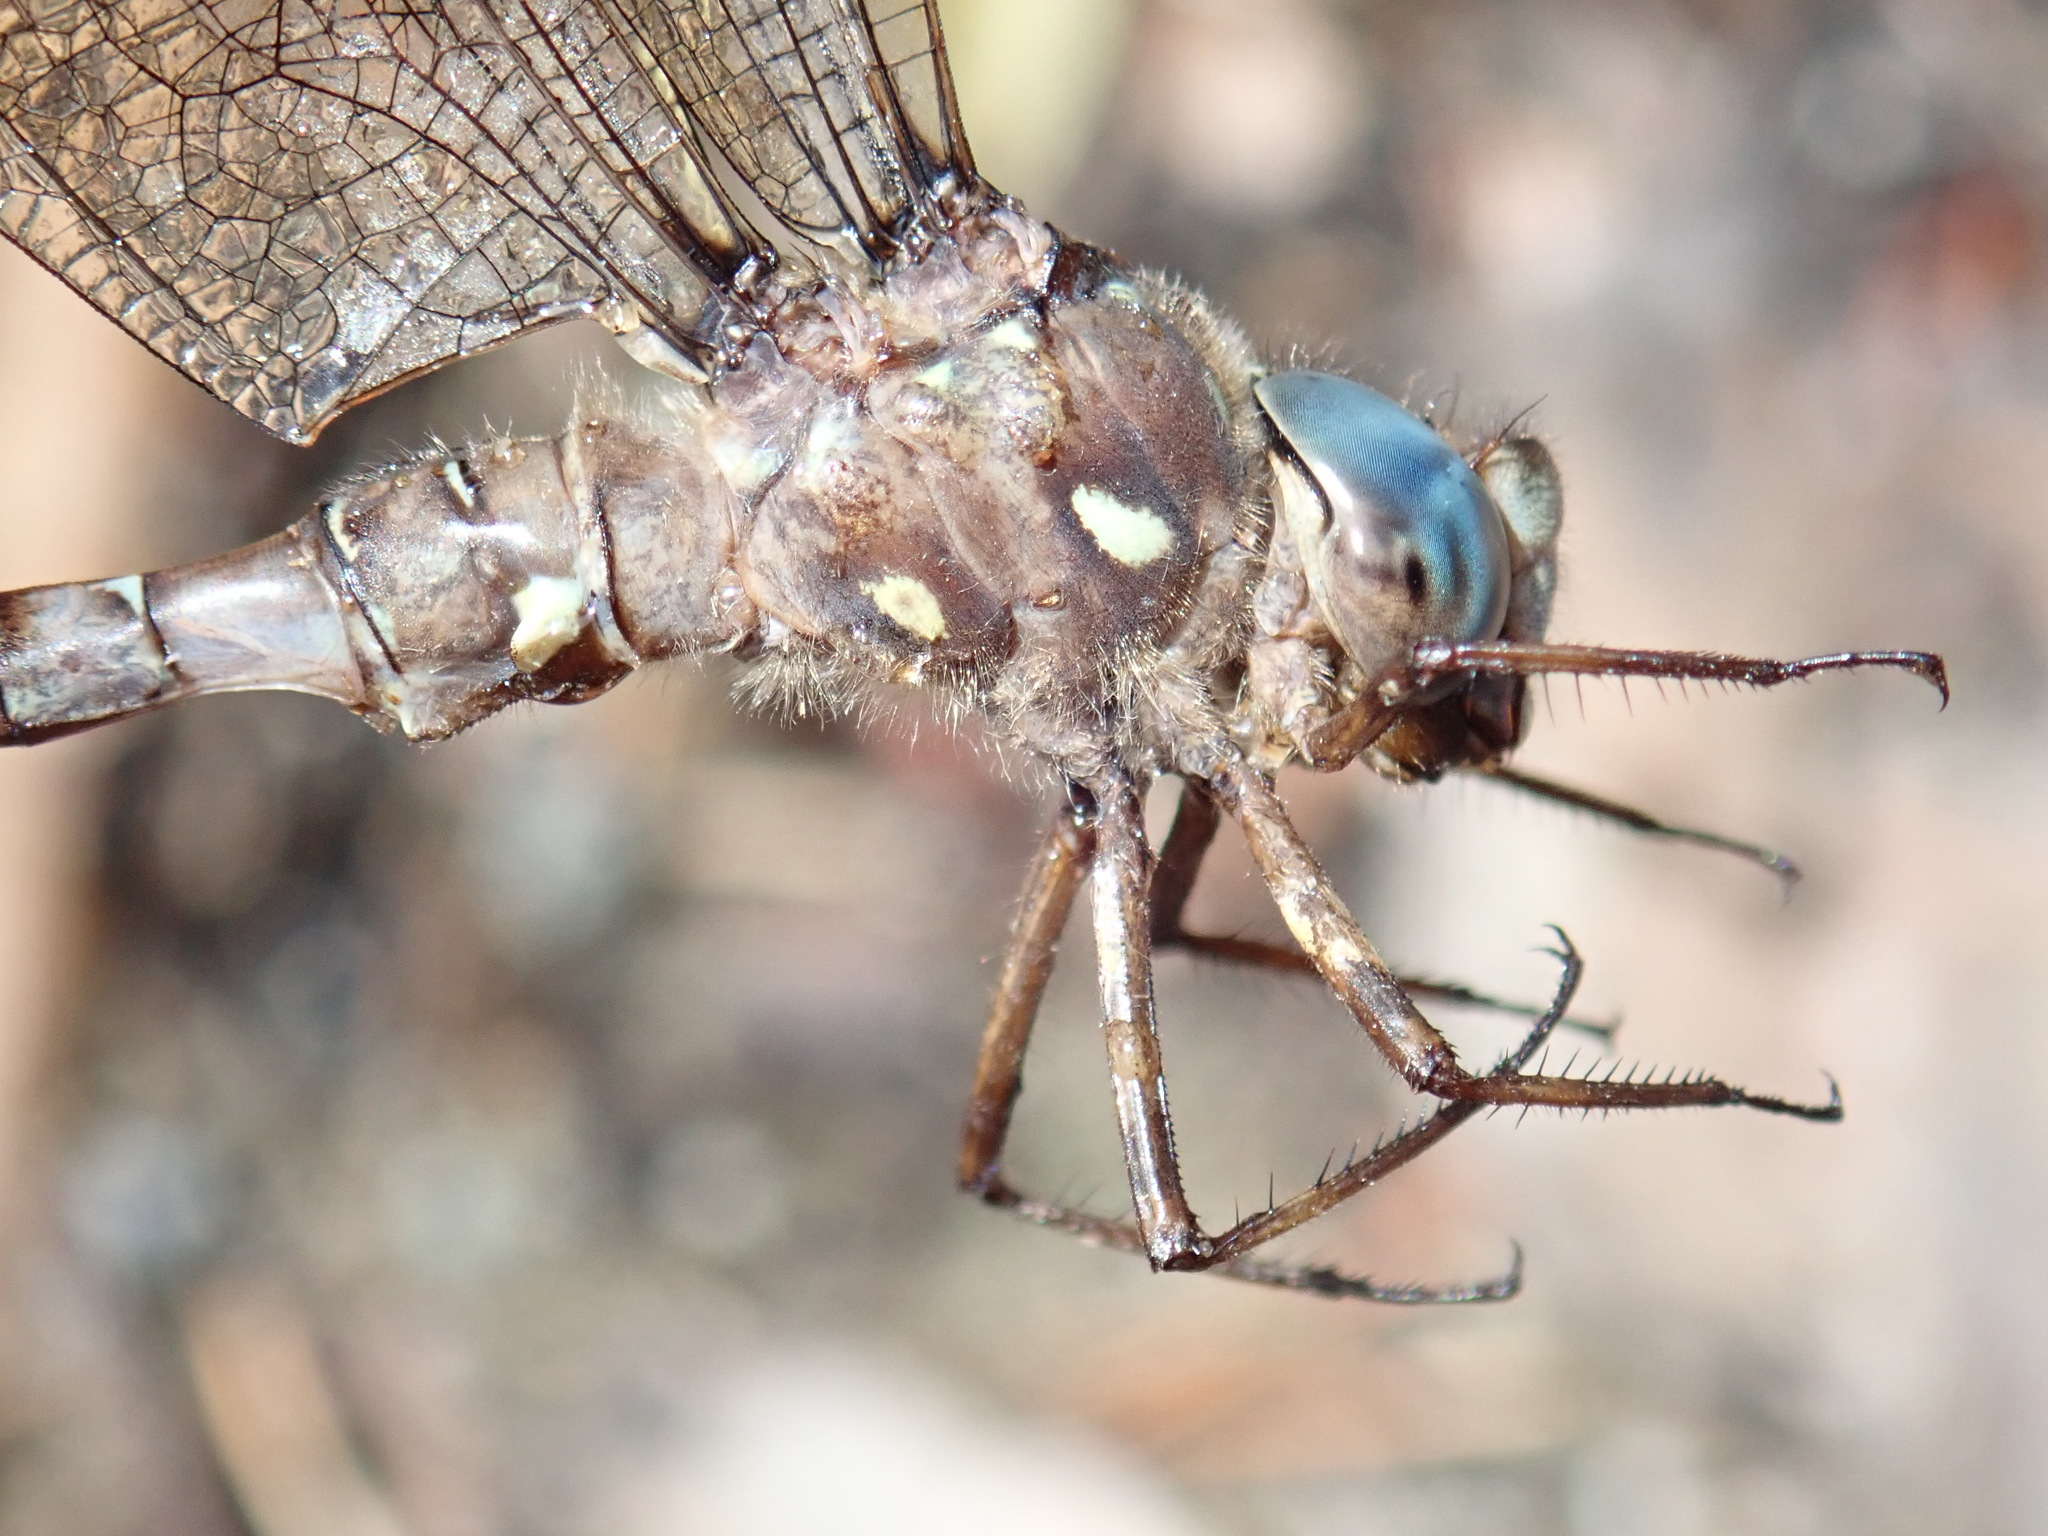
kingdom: Animalia
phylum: Arthropoda
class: Insecta
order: Odonata
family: Aeshnidae
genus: Boyeria
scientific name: Boyeria grafiana
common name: Ocellated darner
